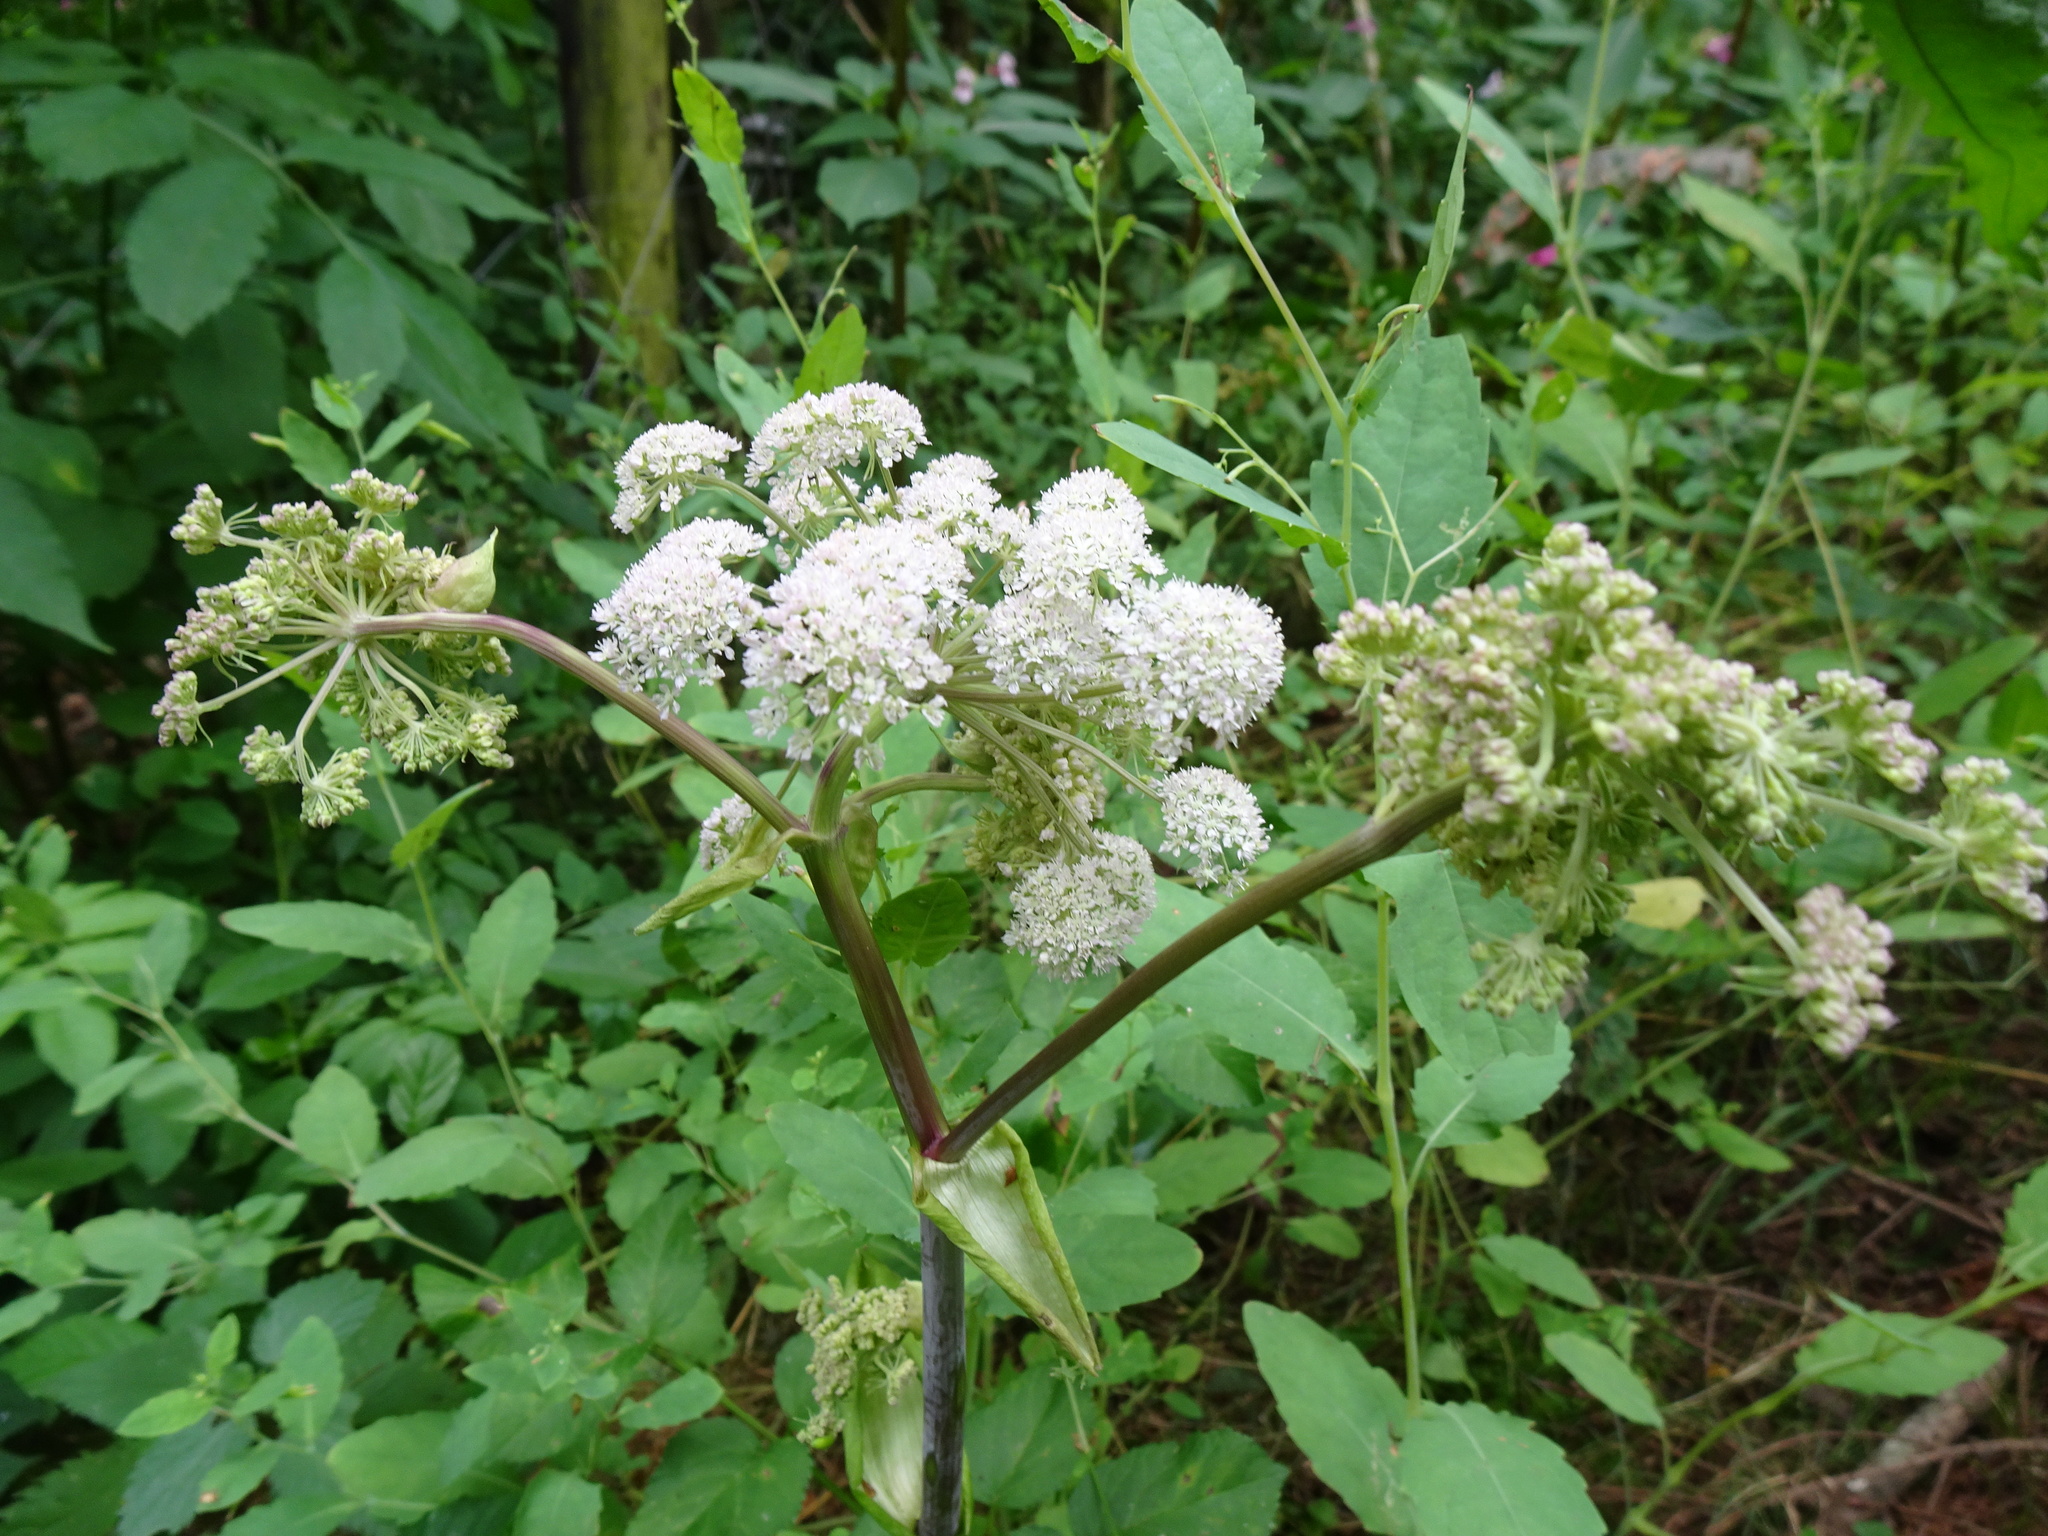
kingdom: Plantae
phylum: Tracheophyta
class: Magnoliopsida
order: Apiales
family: Apiaceae
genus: Angelica
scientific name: Angelica sylvestris
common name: Wild angelica
